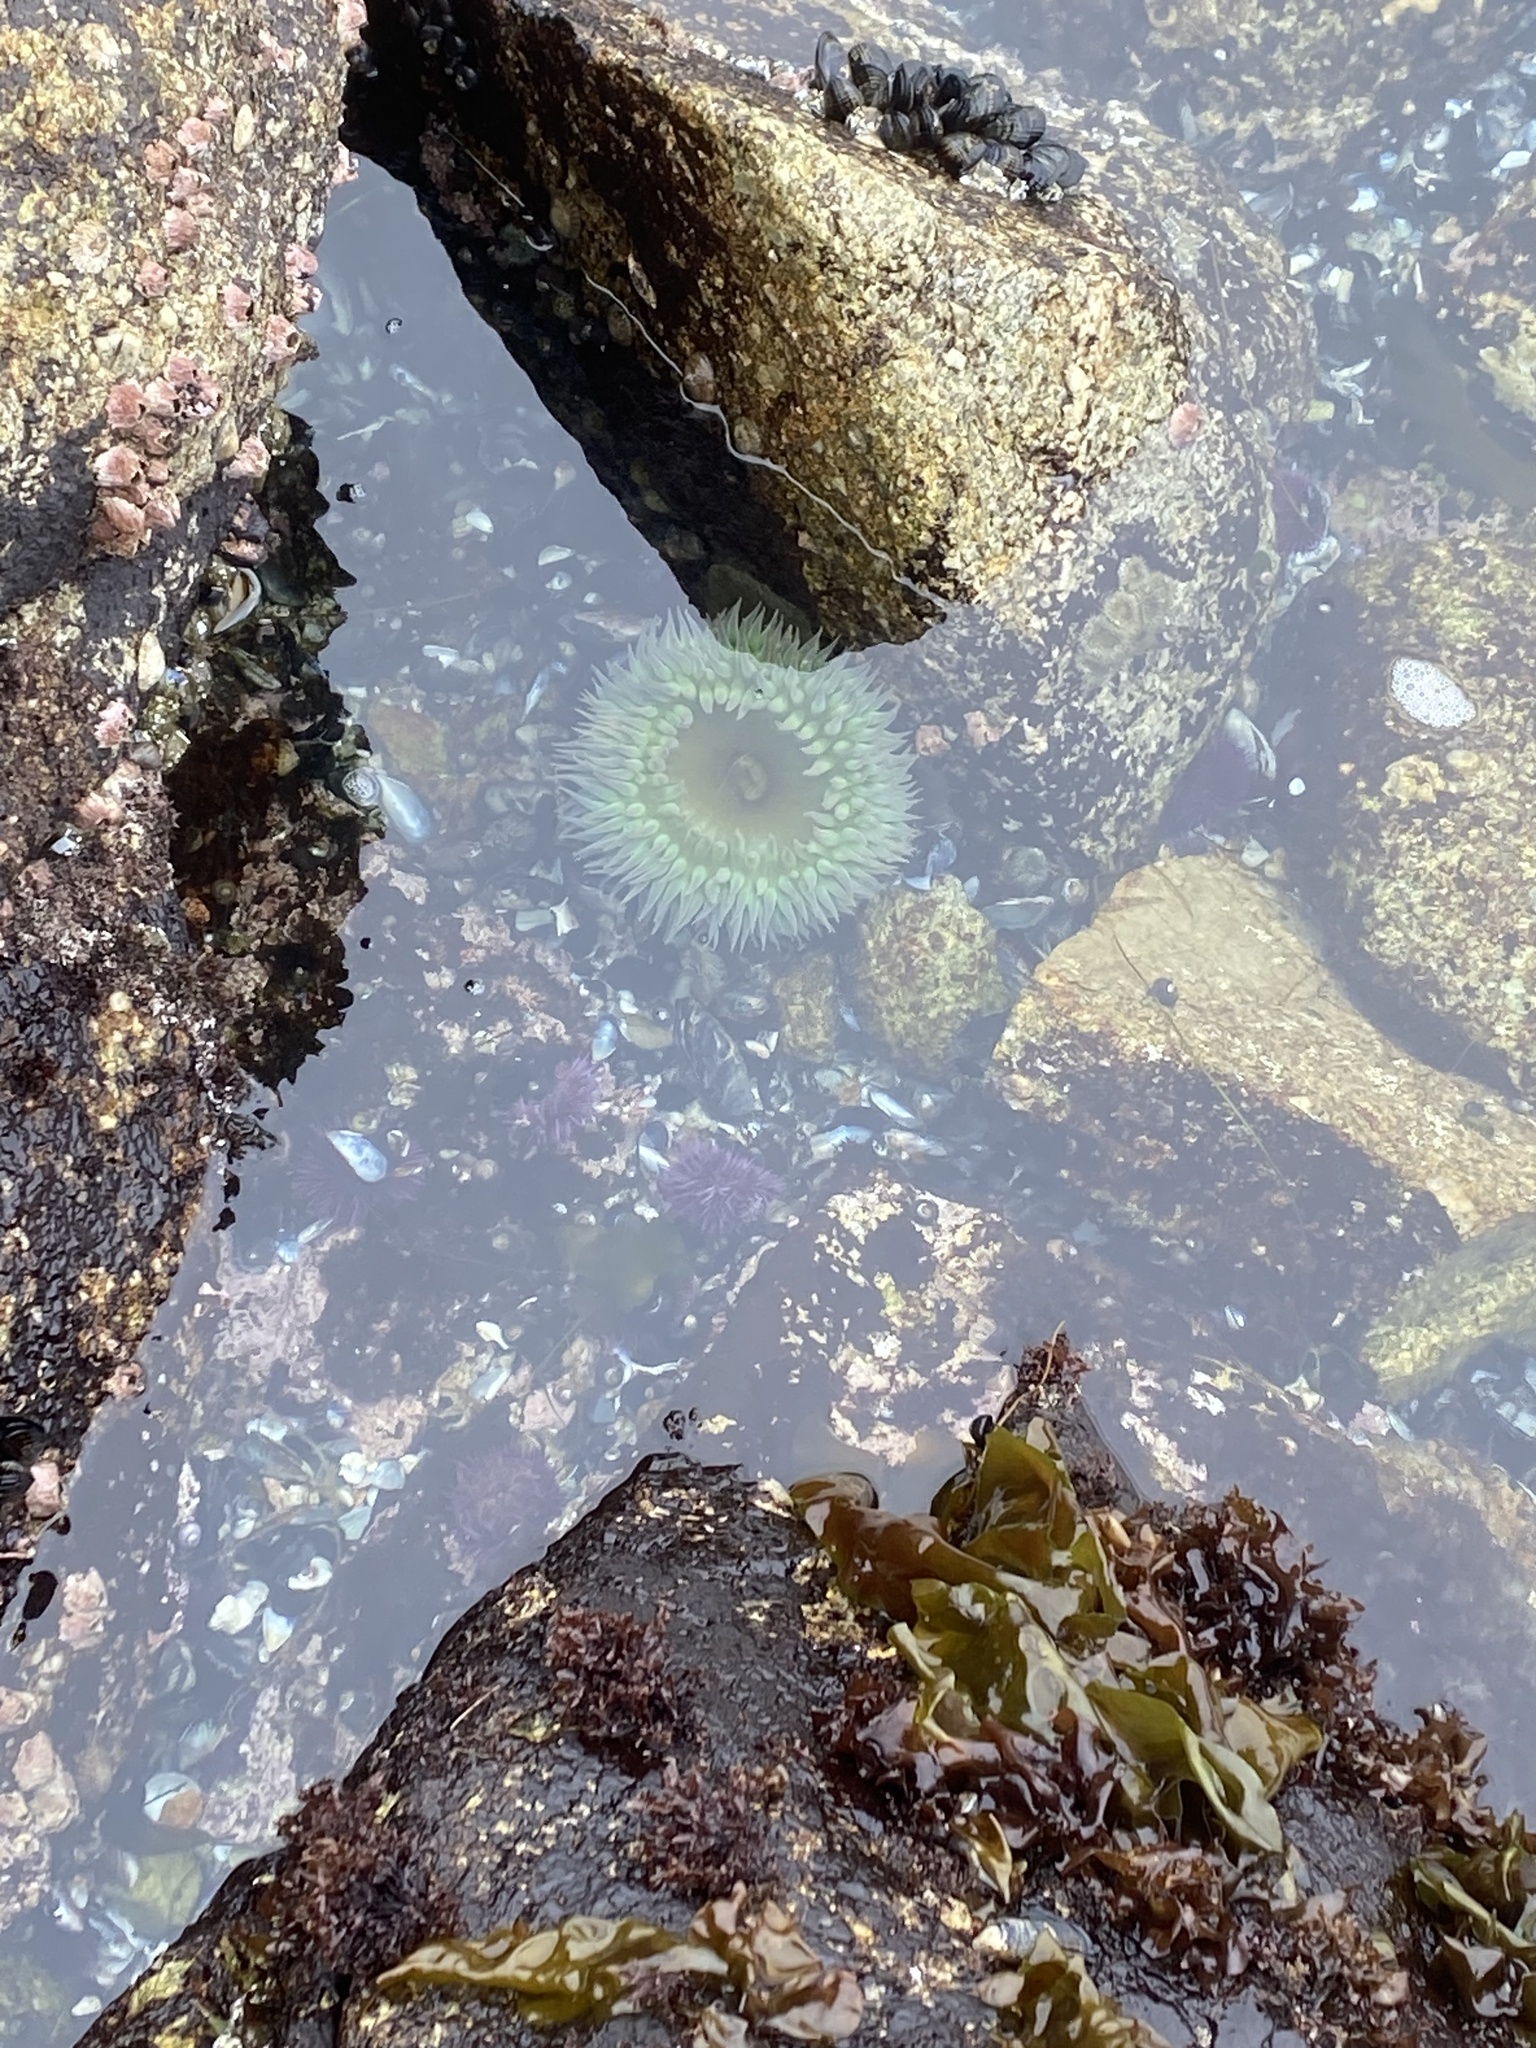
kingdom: Animalia
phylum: Cnidaria
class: Anthozoa
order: Actiniaria
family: Actiniidae
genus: Anthopleura
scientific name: Anthopleura xanthogrammica
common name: Giant green anemone
